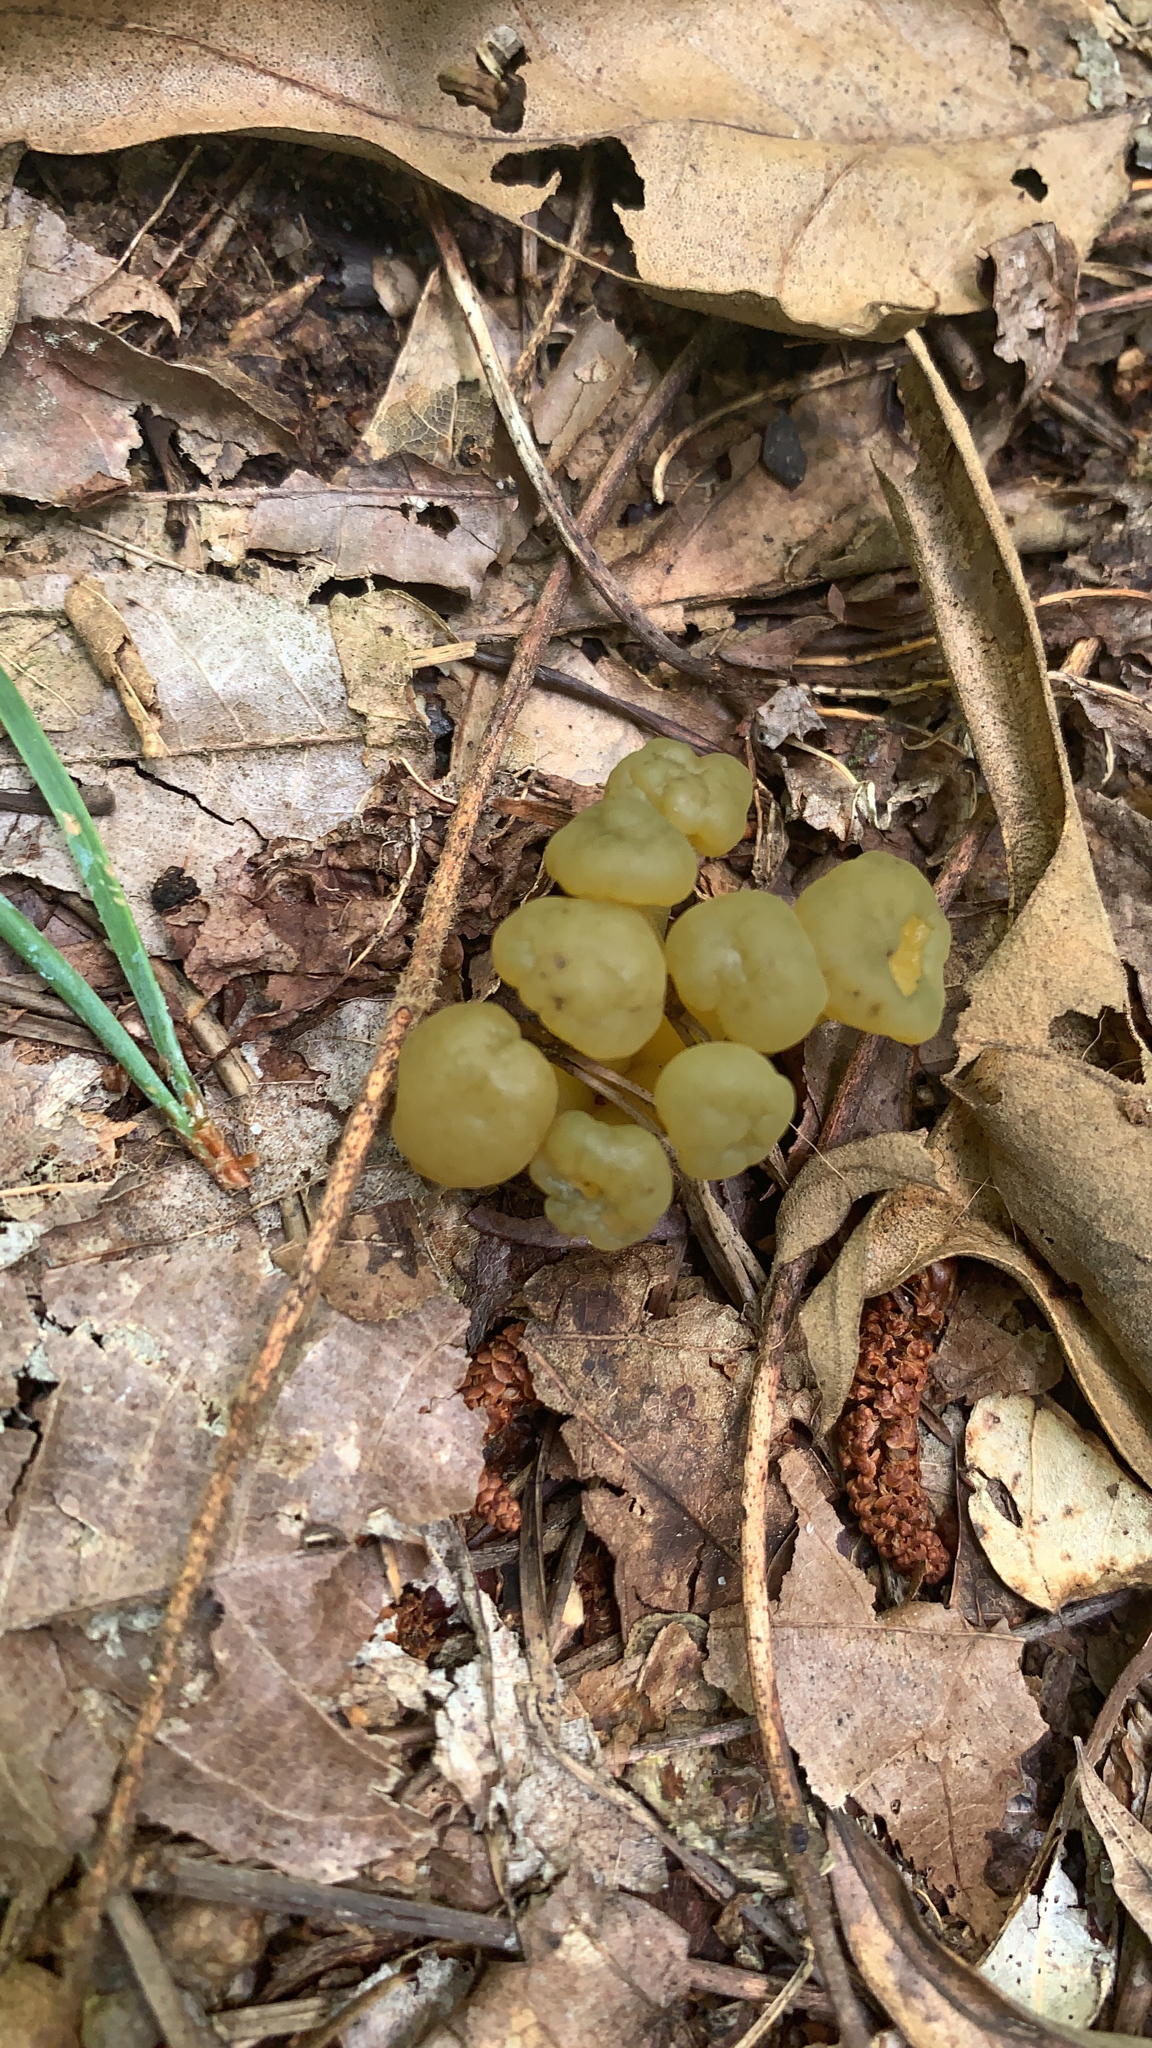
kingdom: Fungi
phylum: Ascomycota
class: Leotiomycetes
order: Leotiales
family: Leotiaceae
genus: Leotia
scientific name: Leotia lubrica
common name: Jellybaby
